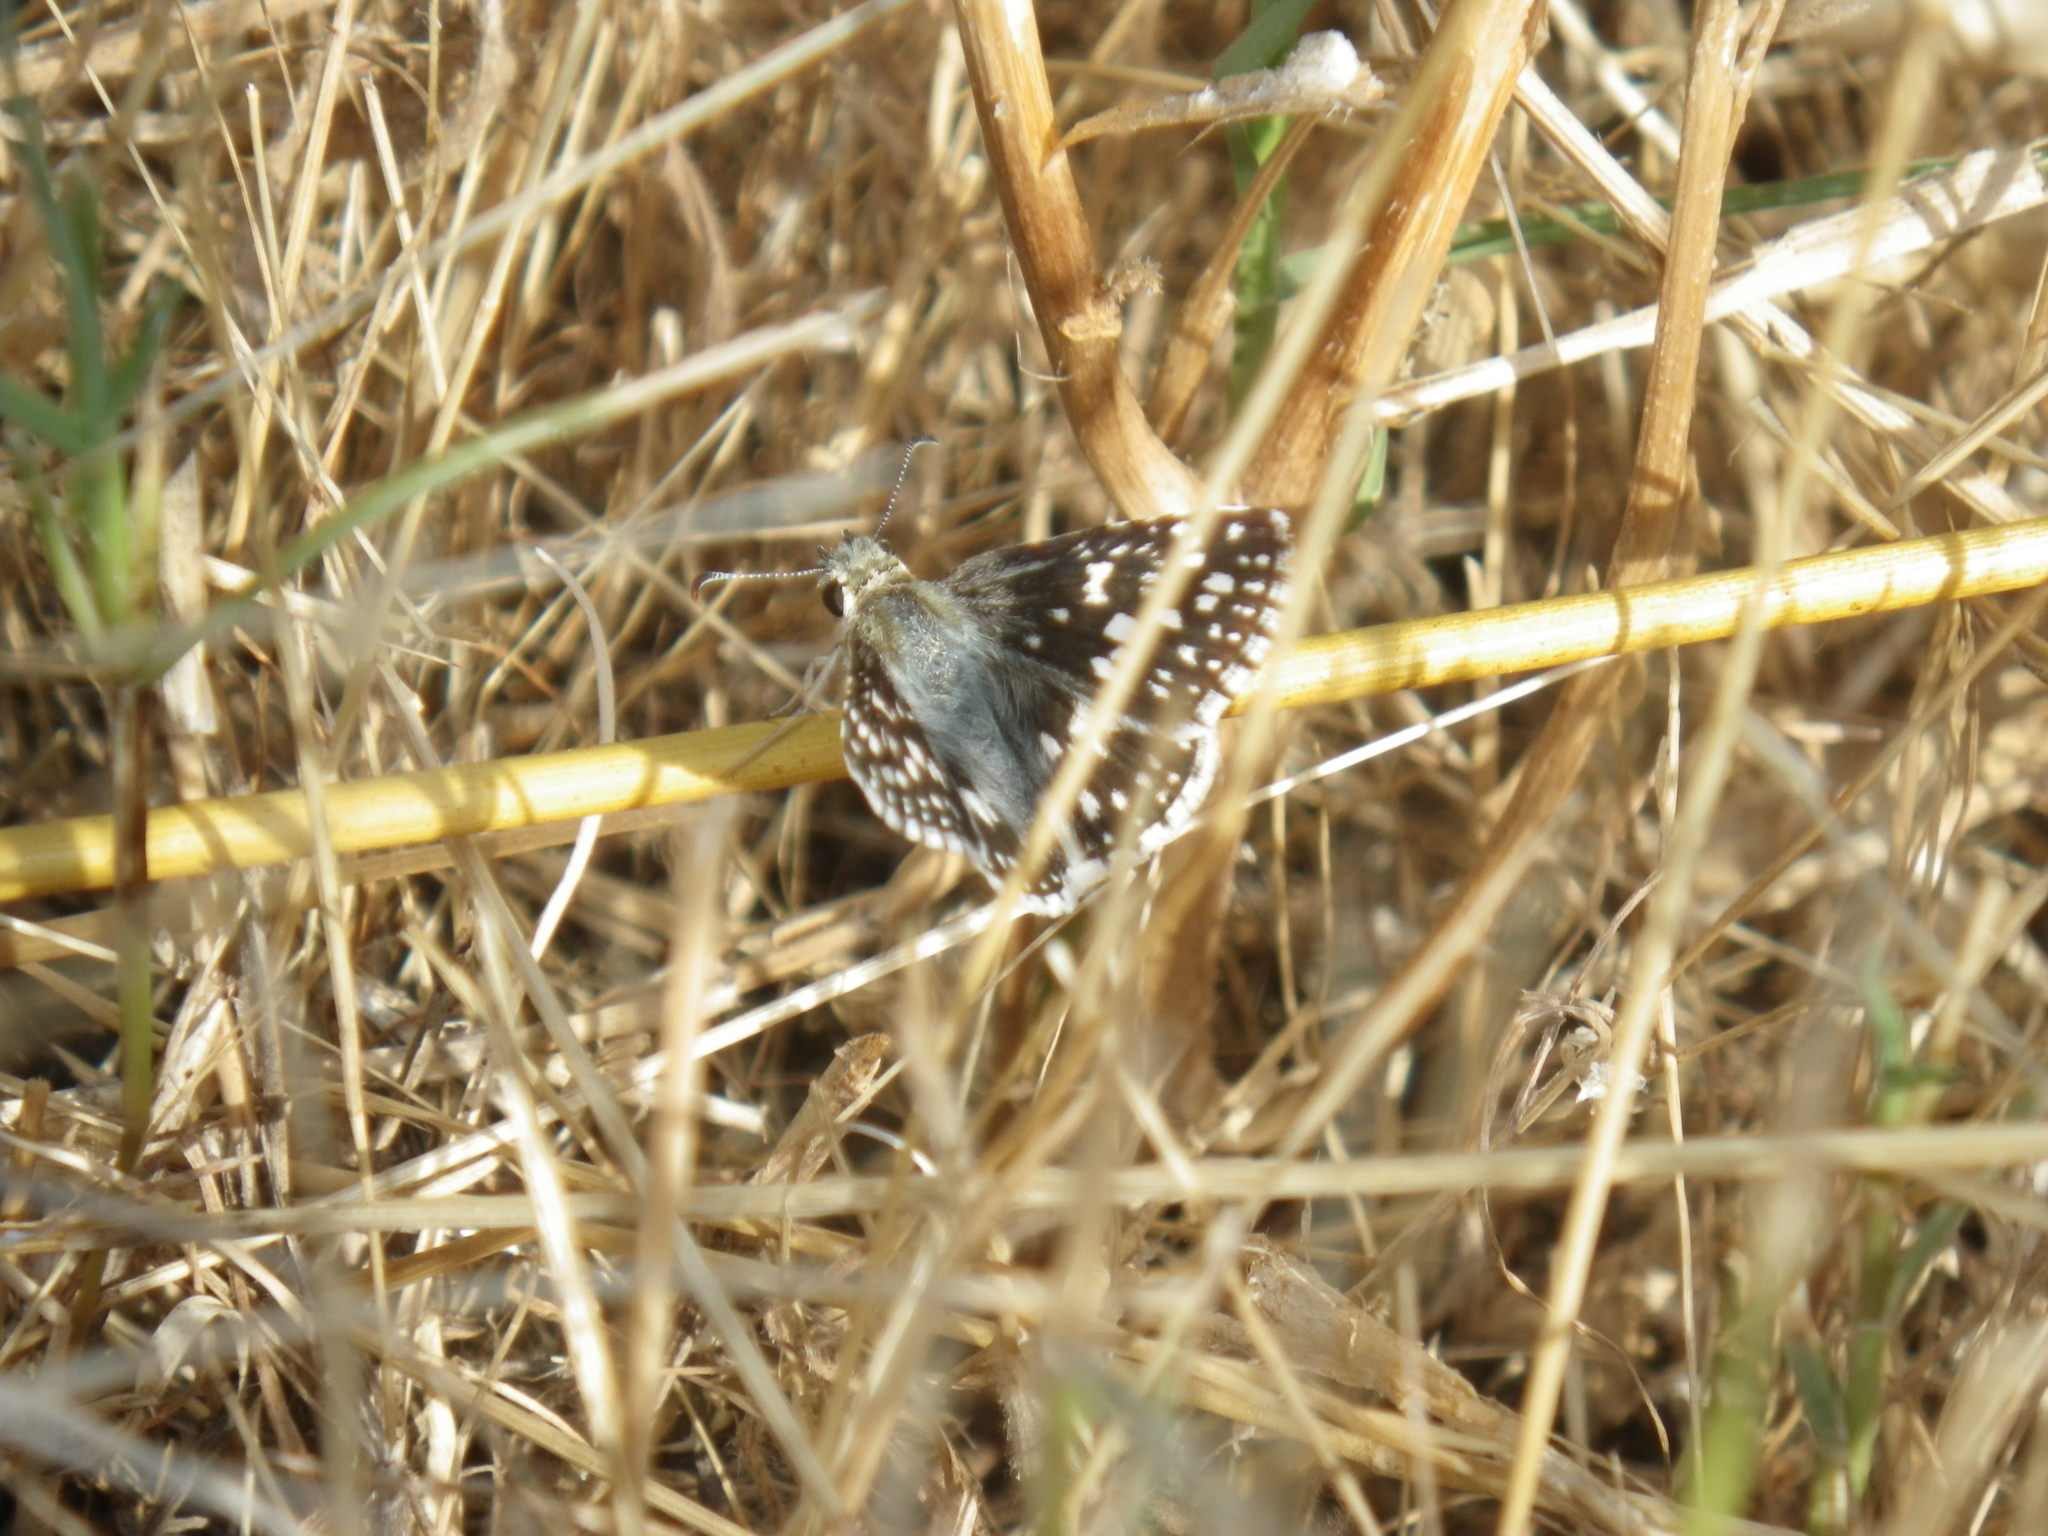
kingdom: Animalia
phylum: Arthropoda
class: Insecta
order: Lepidoptera
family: Hesperiidae
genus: Burnsius
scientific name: Burnsius communis
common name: Common checkered-skipper
